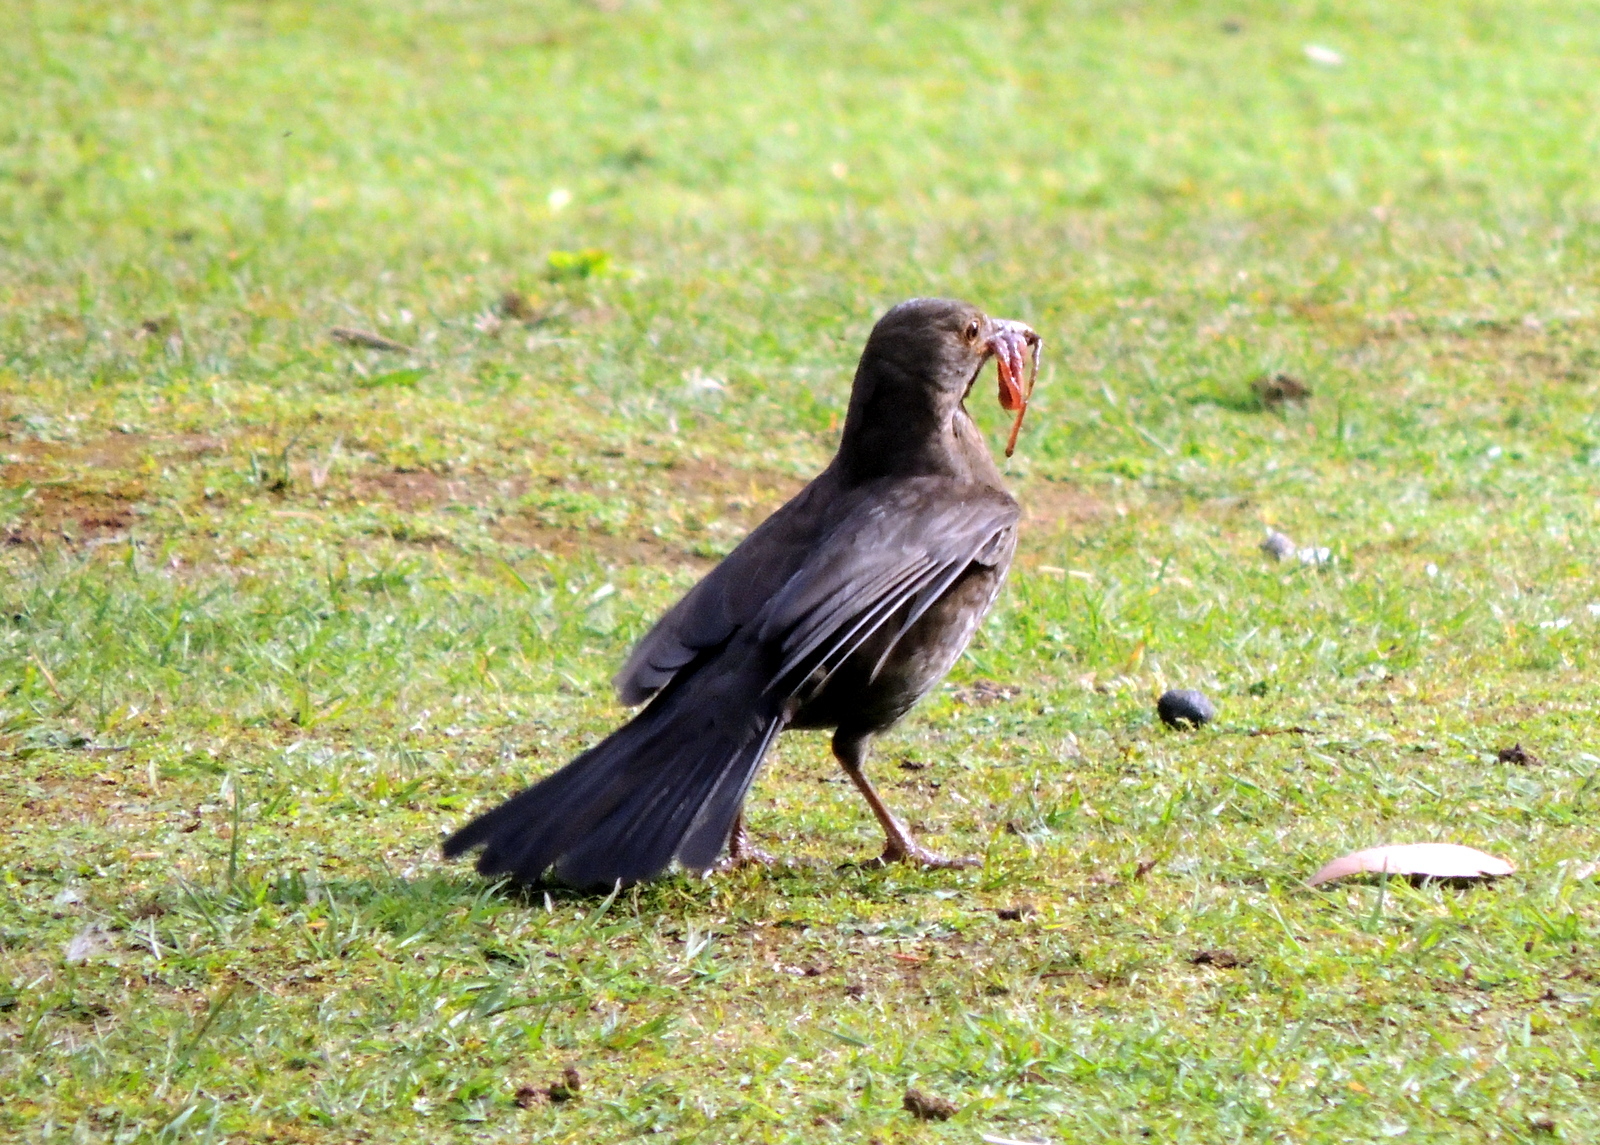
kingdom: Animalia
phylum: Chordata
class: Aves
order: Passeriformes
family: Turdidae
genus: Turdus
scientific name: Turdus merula
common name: Common blackbird
